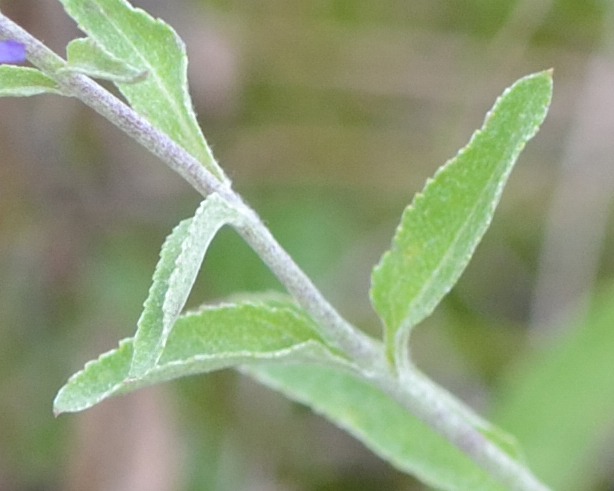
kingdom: Plantae
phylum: Tracheophyta
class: Magnoliopsida
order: Lamiales
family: Plantaginaceae
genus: Veronica
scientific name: Veronica incana
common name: Silver speedwell
